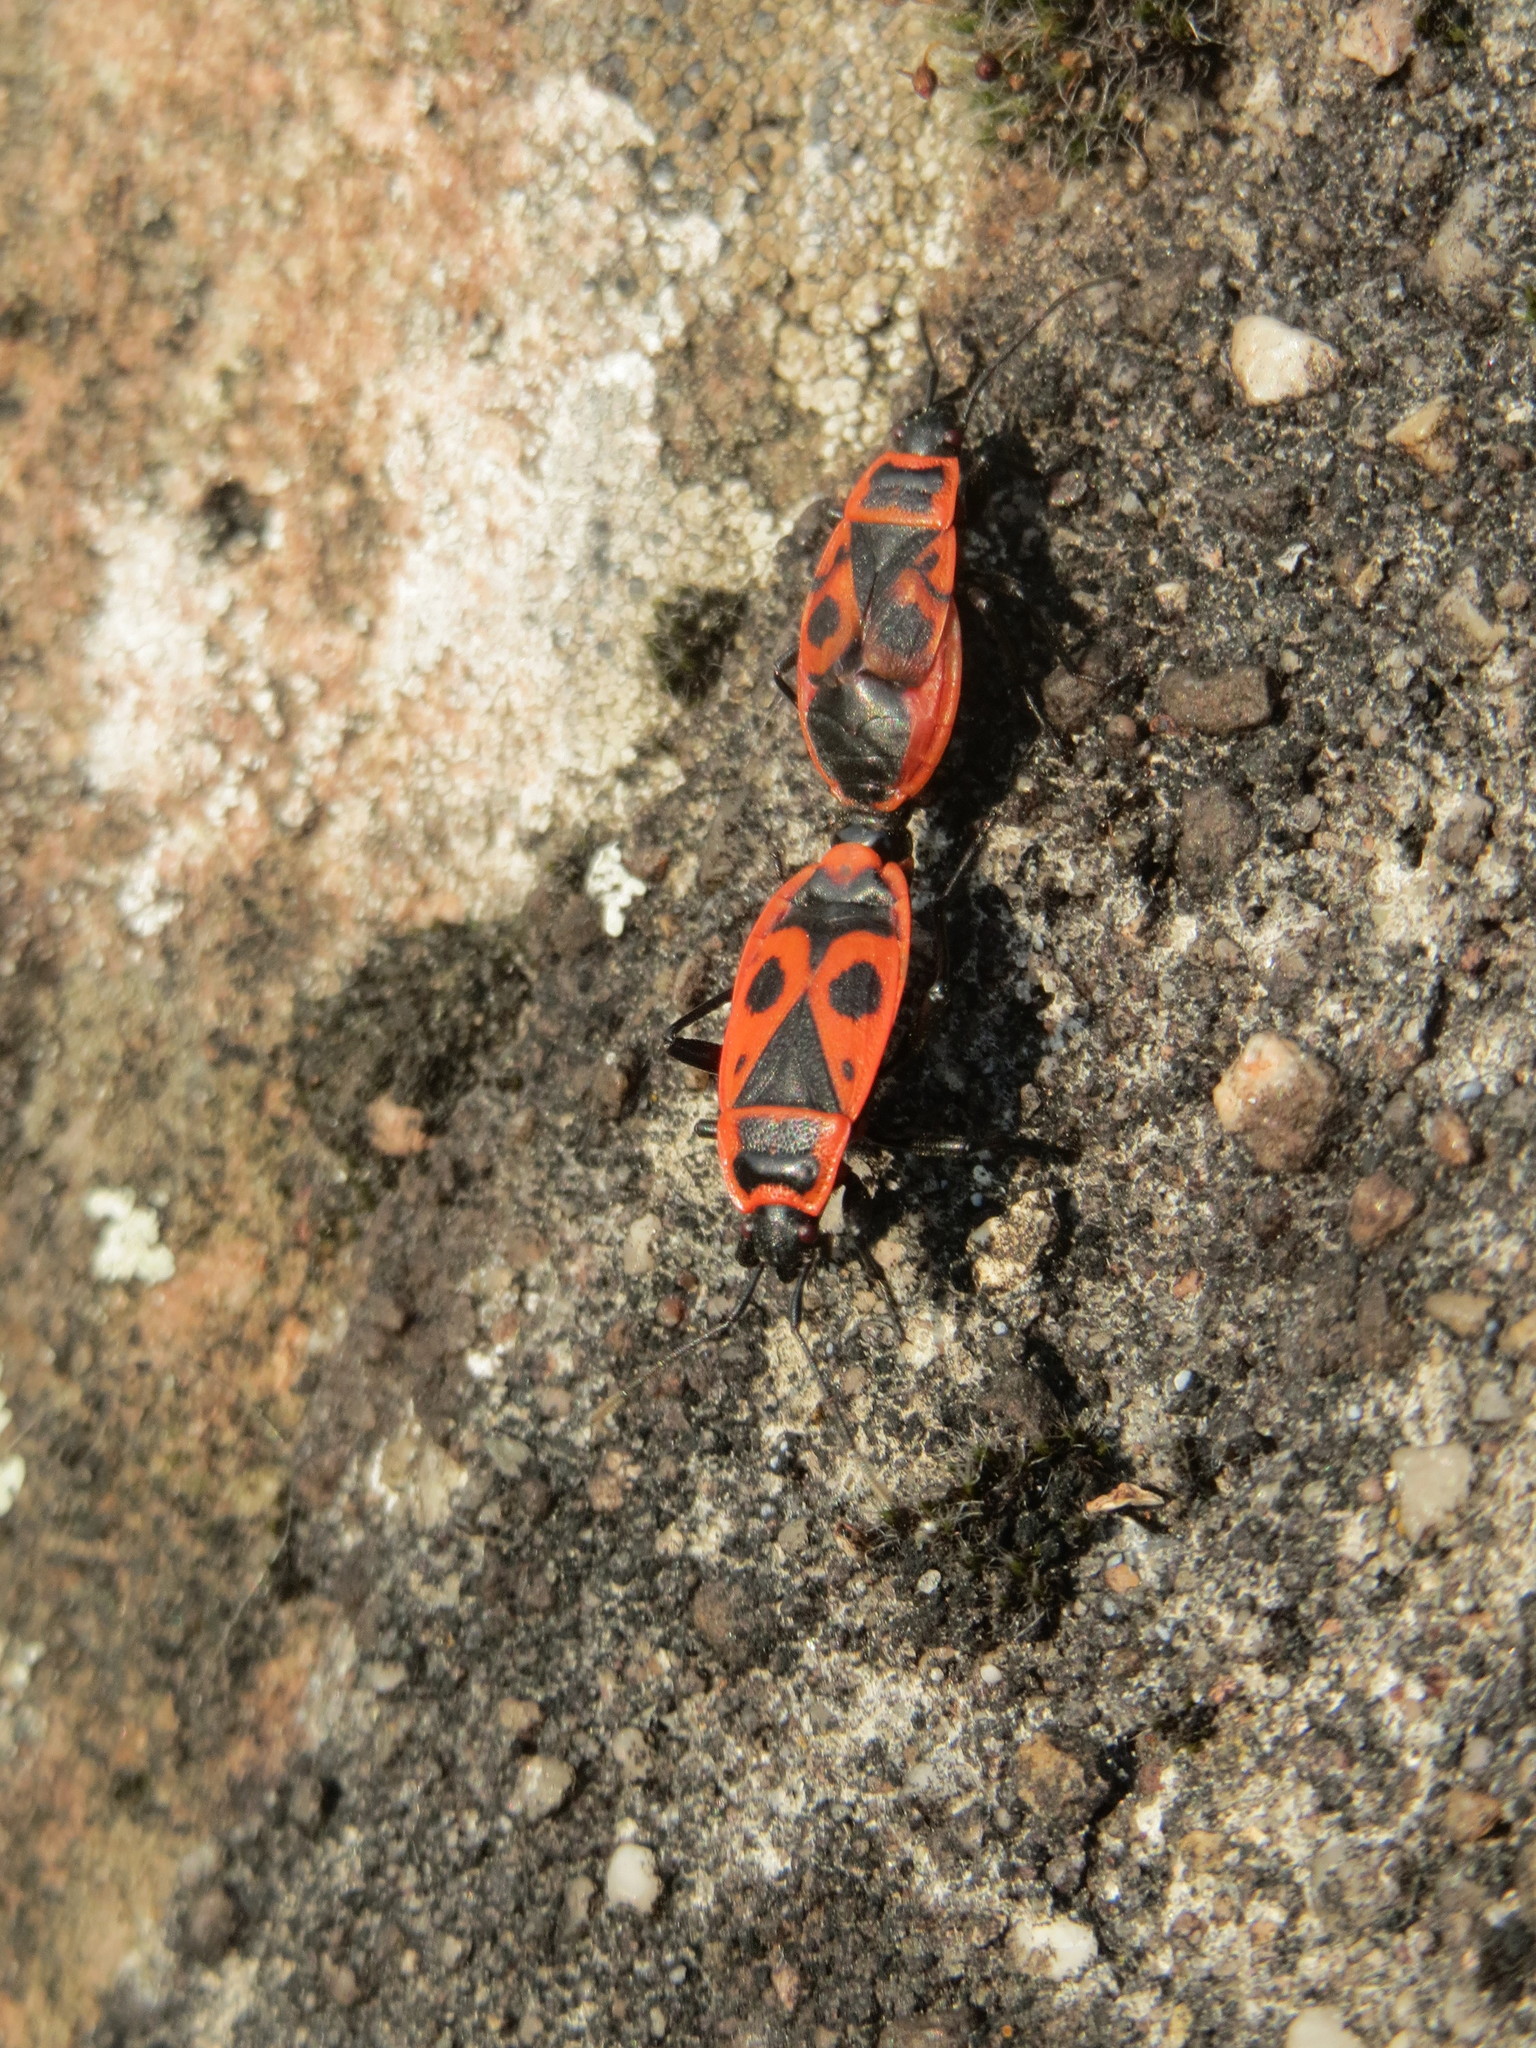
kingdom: Animalia
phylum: Arthropoda
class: Insecta
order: Hemiptera
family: Pyrrhocoridae
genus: Pyrrhocoris
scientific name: Pyrrhocoris apterus
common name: Firebug
